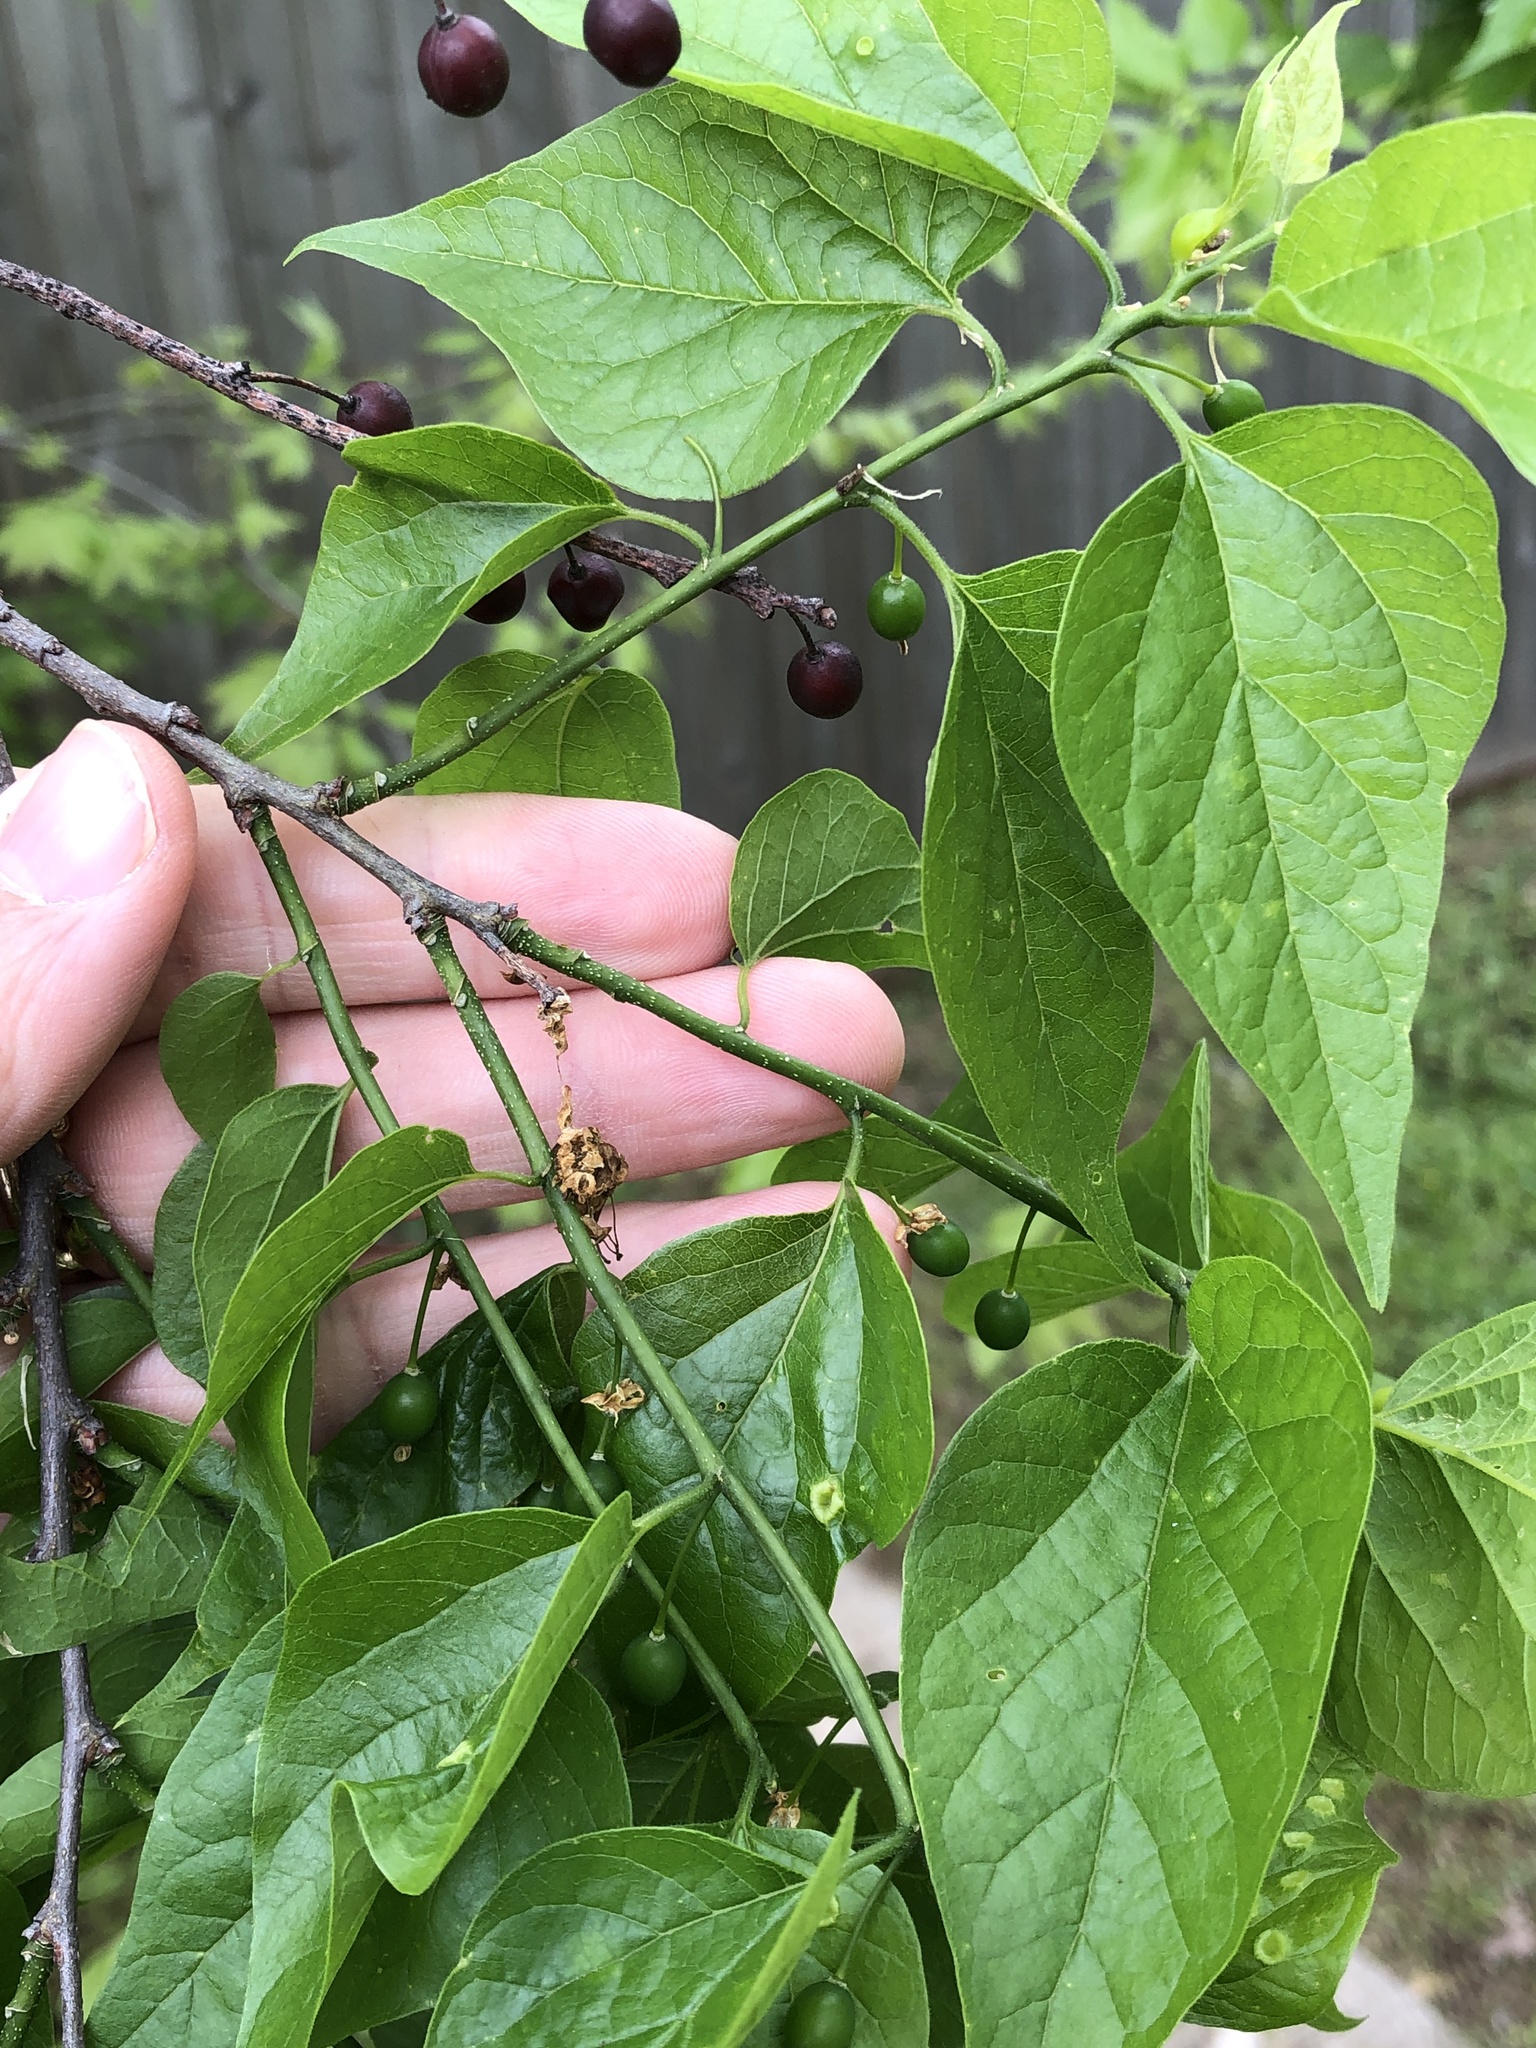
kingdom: Plantae
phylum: Tracheophyta
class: Magnoliopsida
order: Rosales
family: Cannabaceae
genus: Celtis
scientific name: Celtis laevigata
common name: Sugarberry
